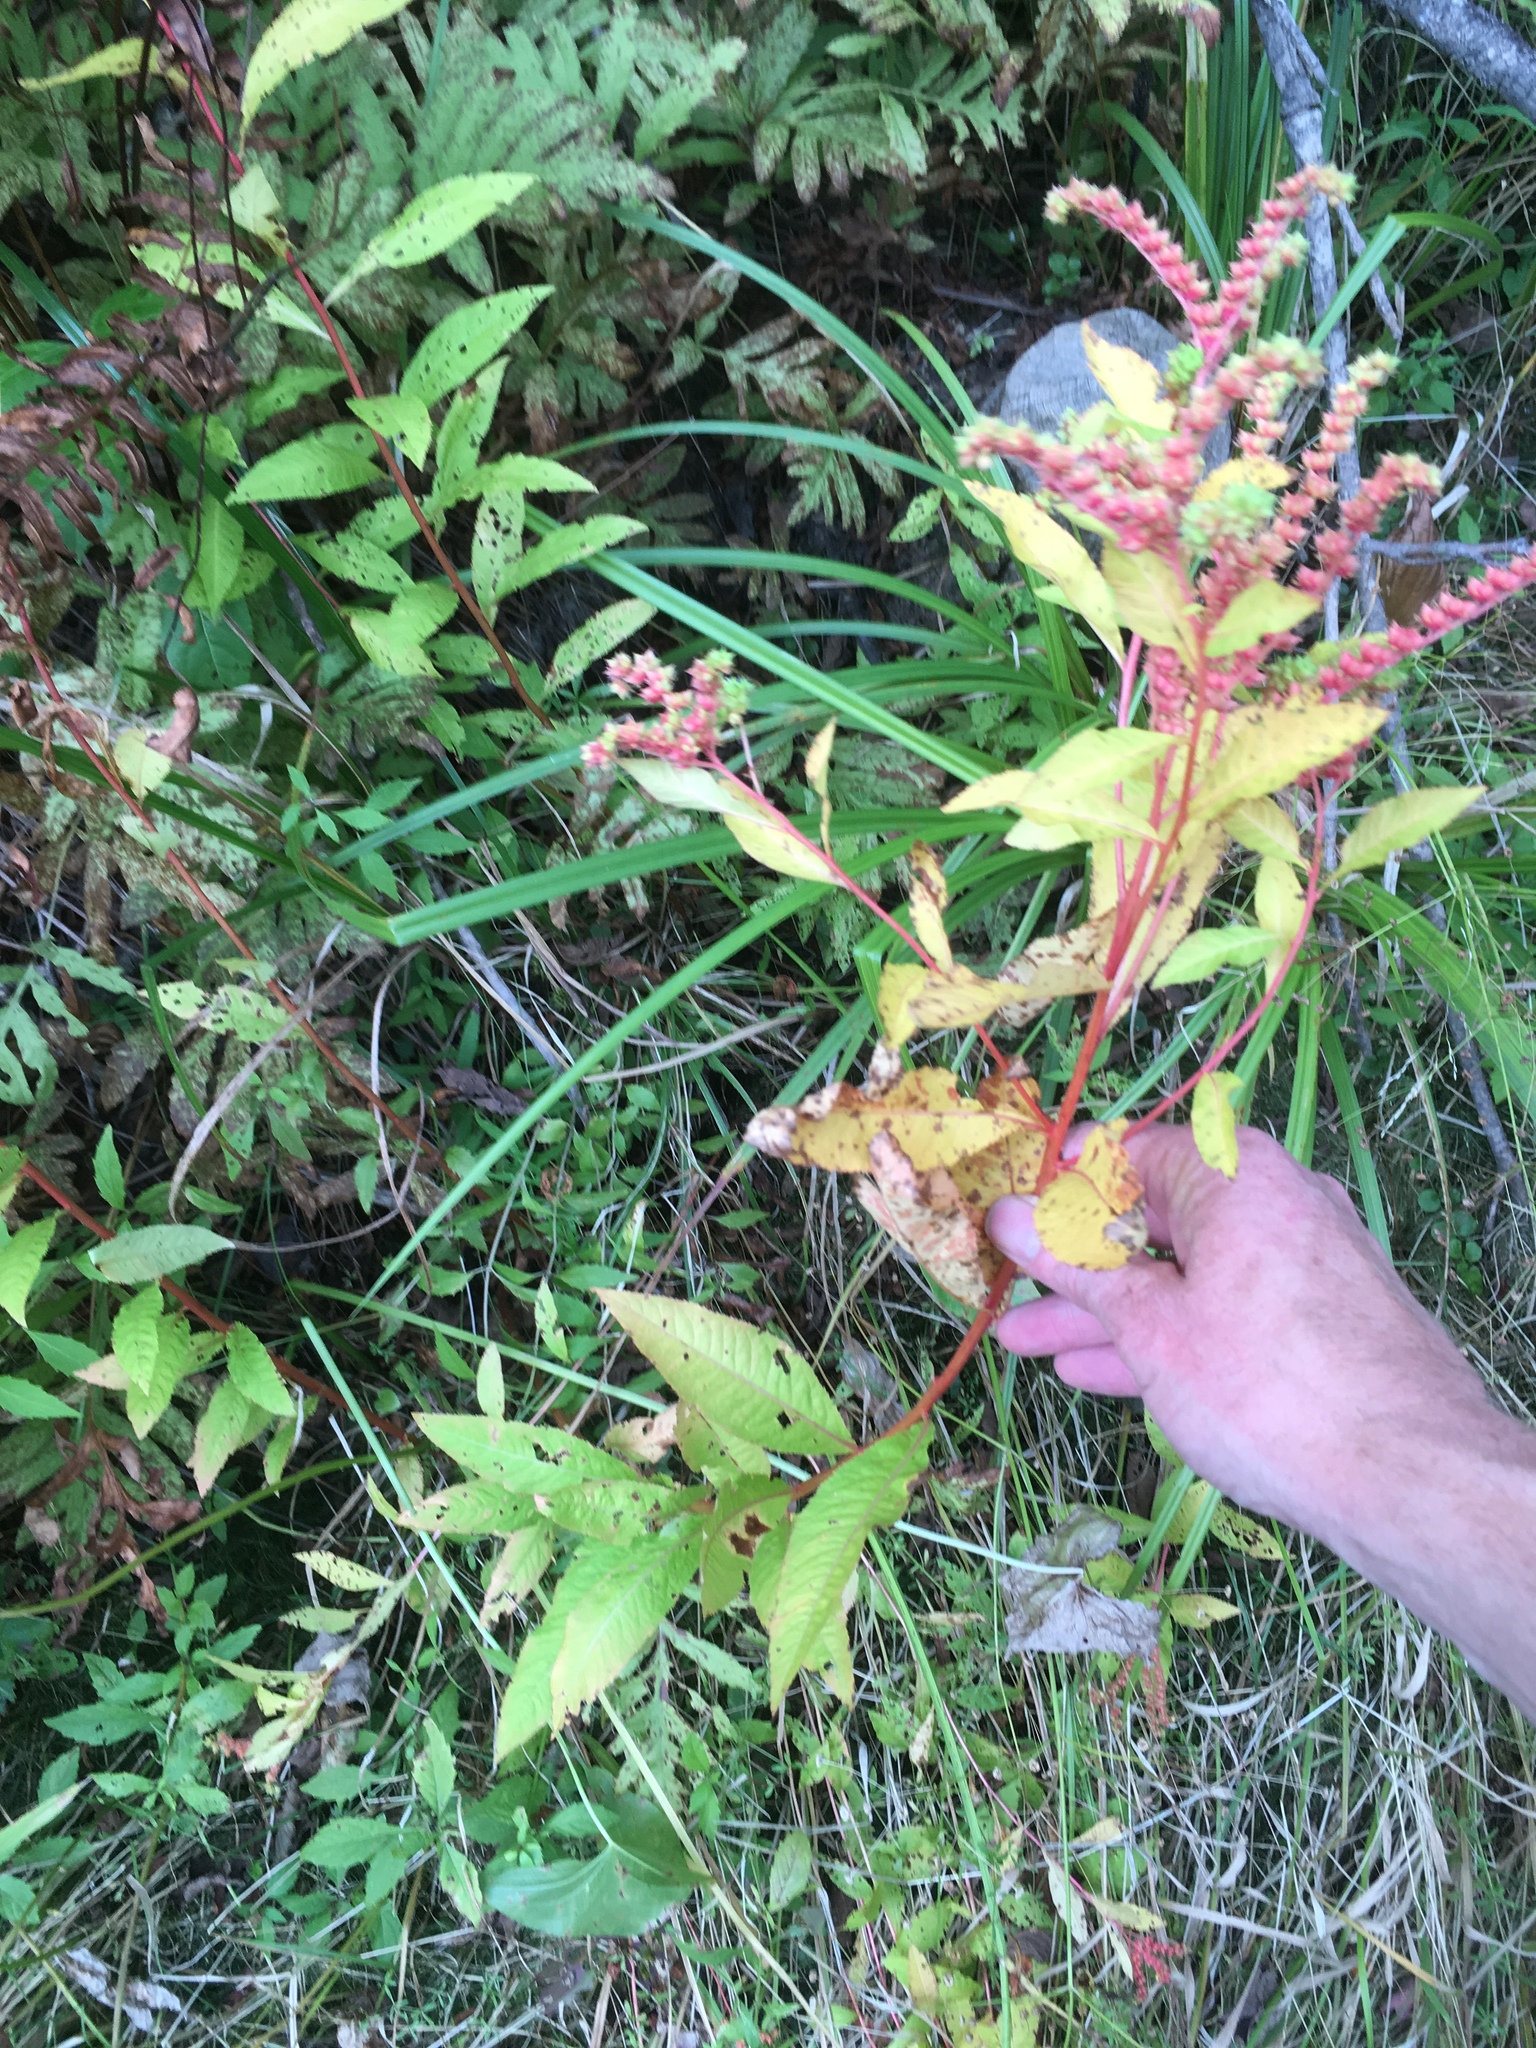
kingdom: Plantae
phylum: Tracheophyta
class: Magnoliopsida
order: Saxifragales
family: Penthoraceae
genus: Penthorum
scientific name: Penthorum sedoides
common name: Ditch stonecrop
